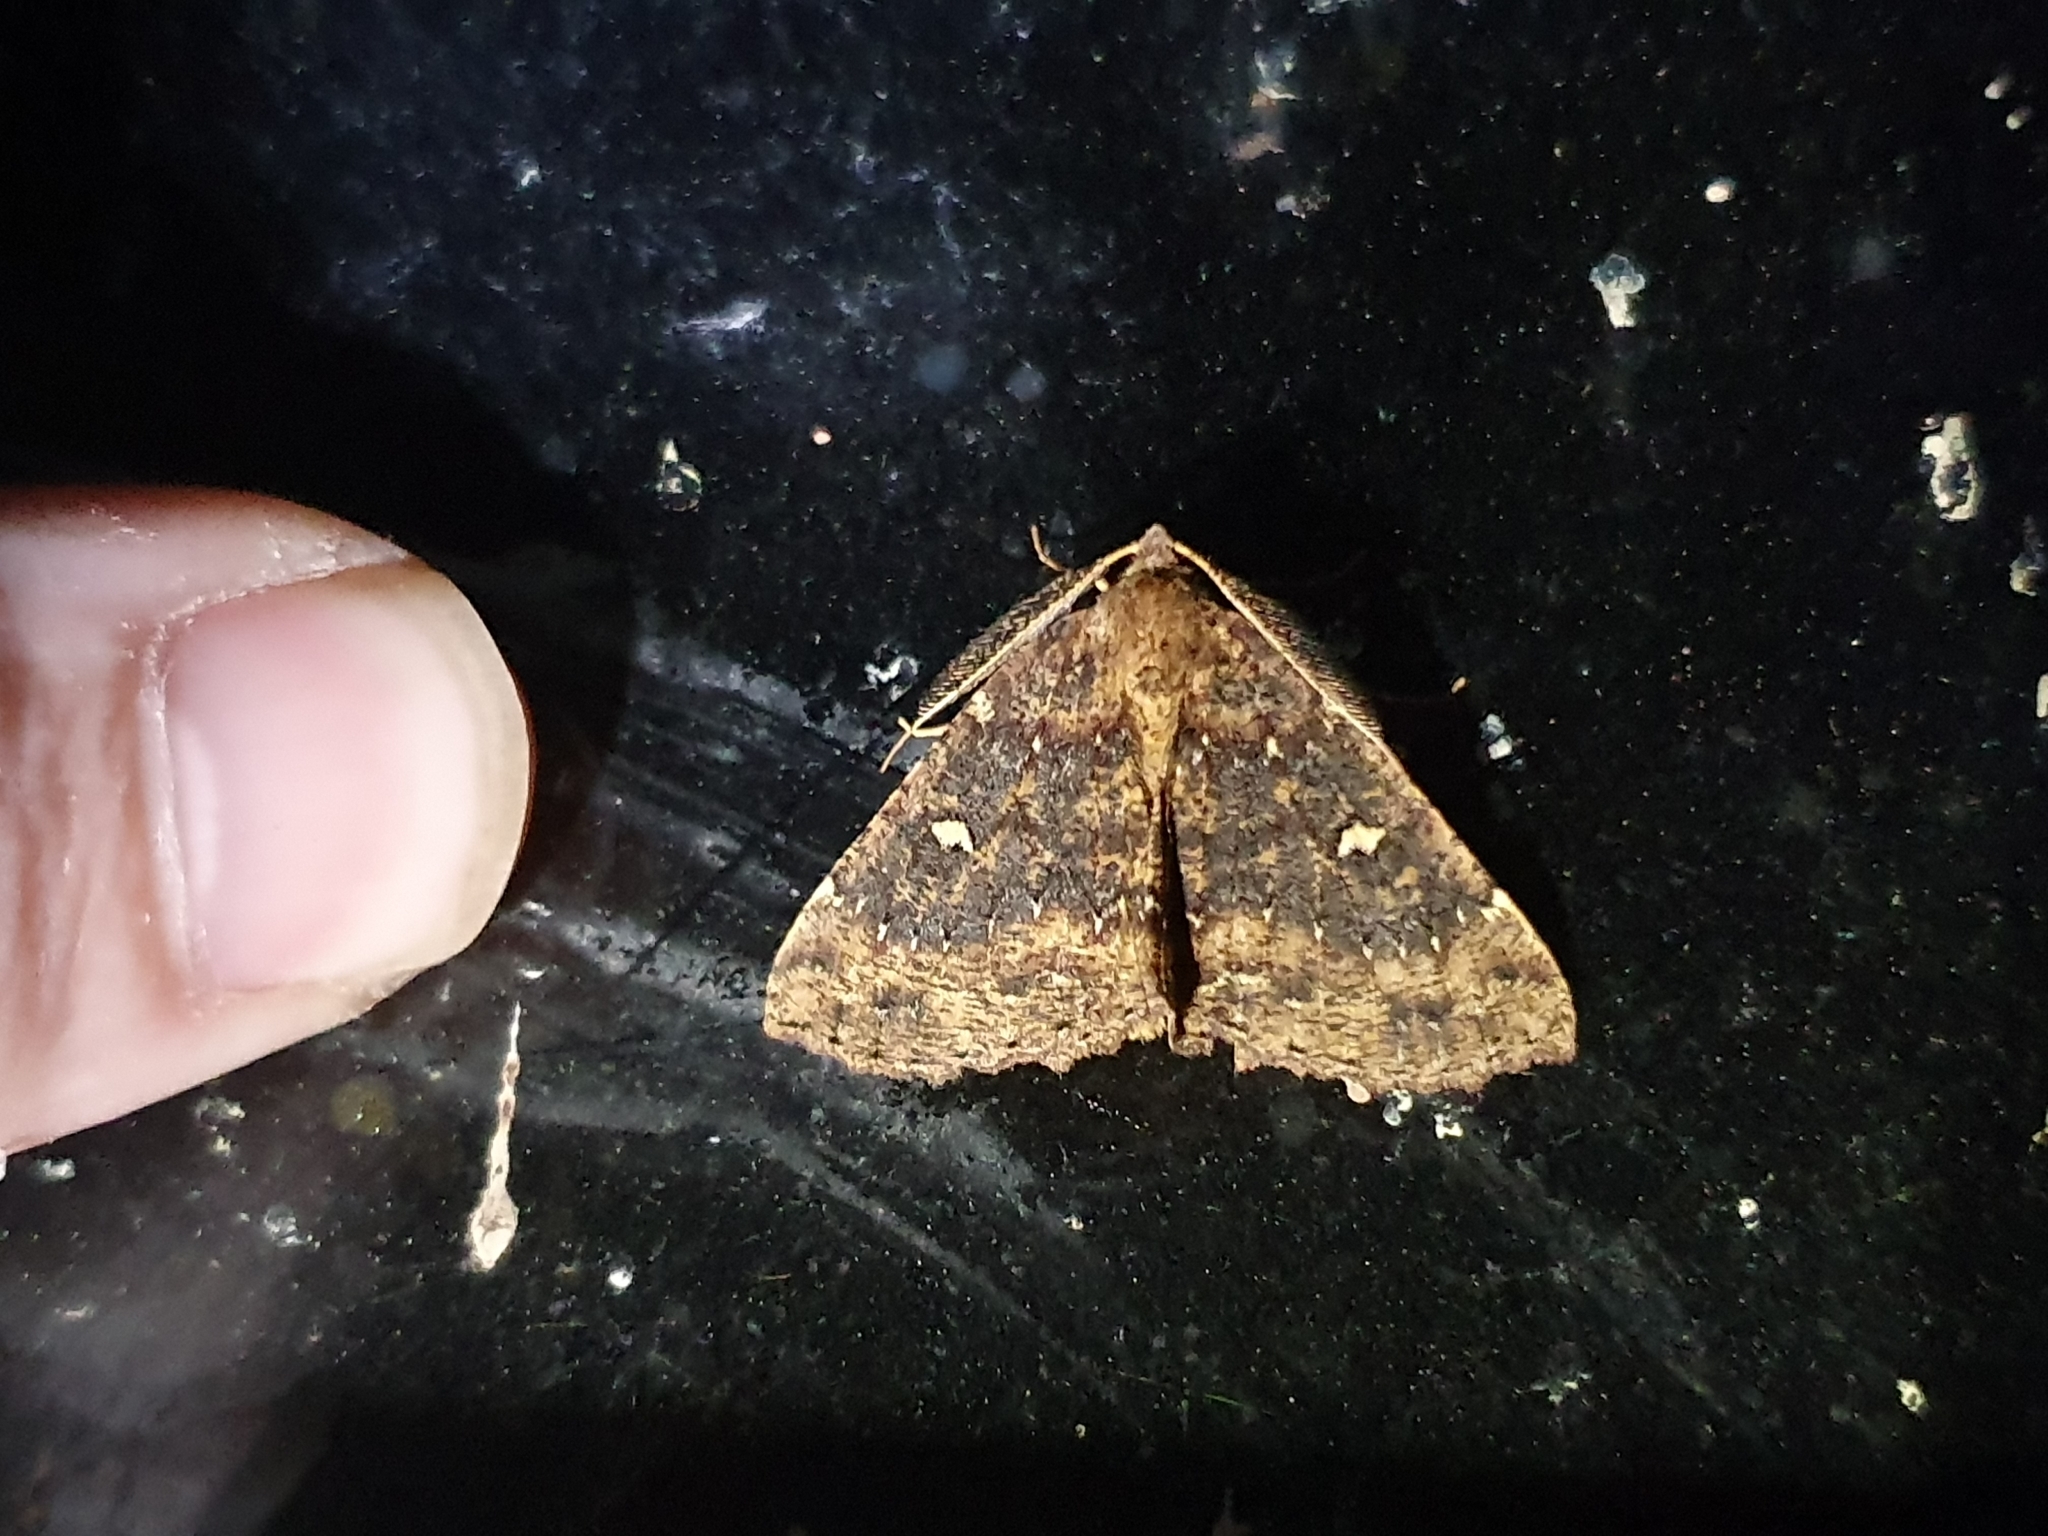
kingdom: Animalia
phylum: Arthropoda
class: Insecta
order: Lepidoptera
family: Geometridae
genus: Cleora
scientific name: Cleora scriptaria
